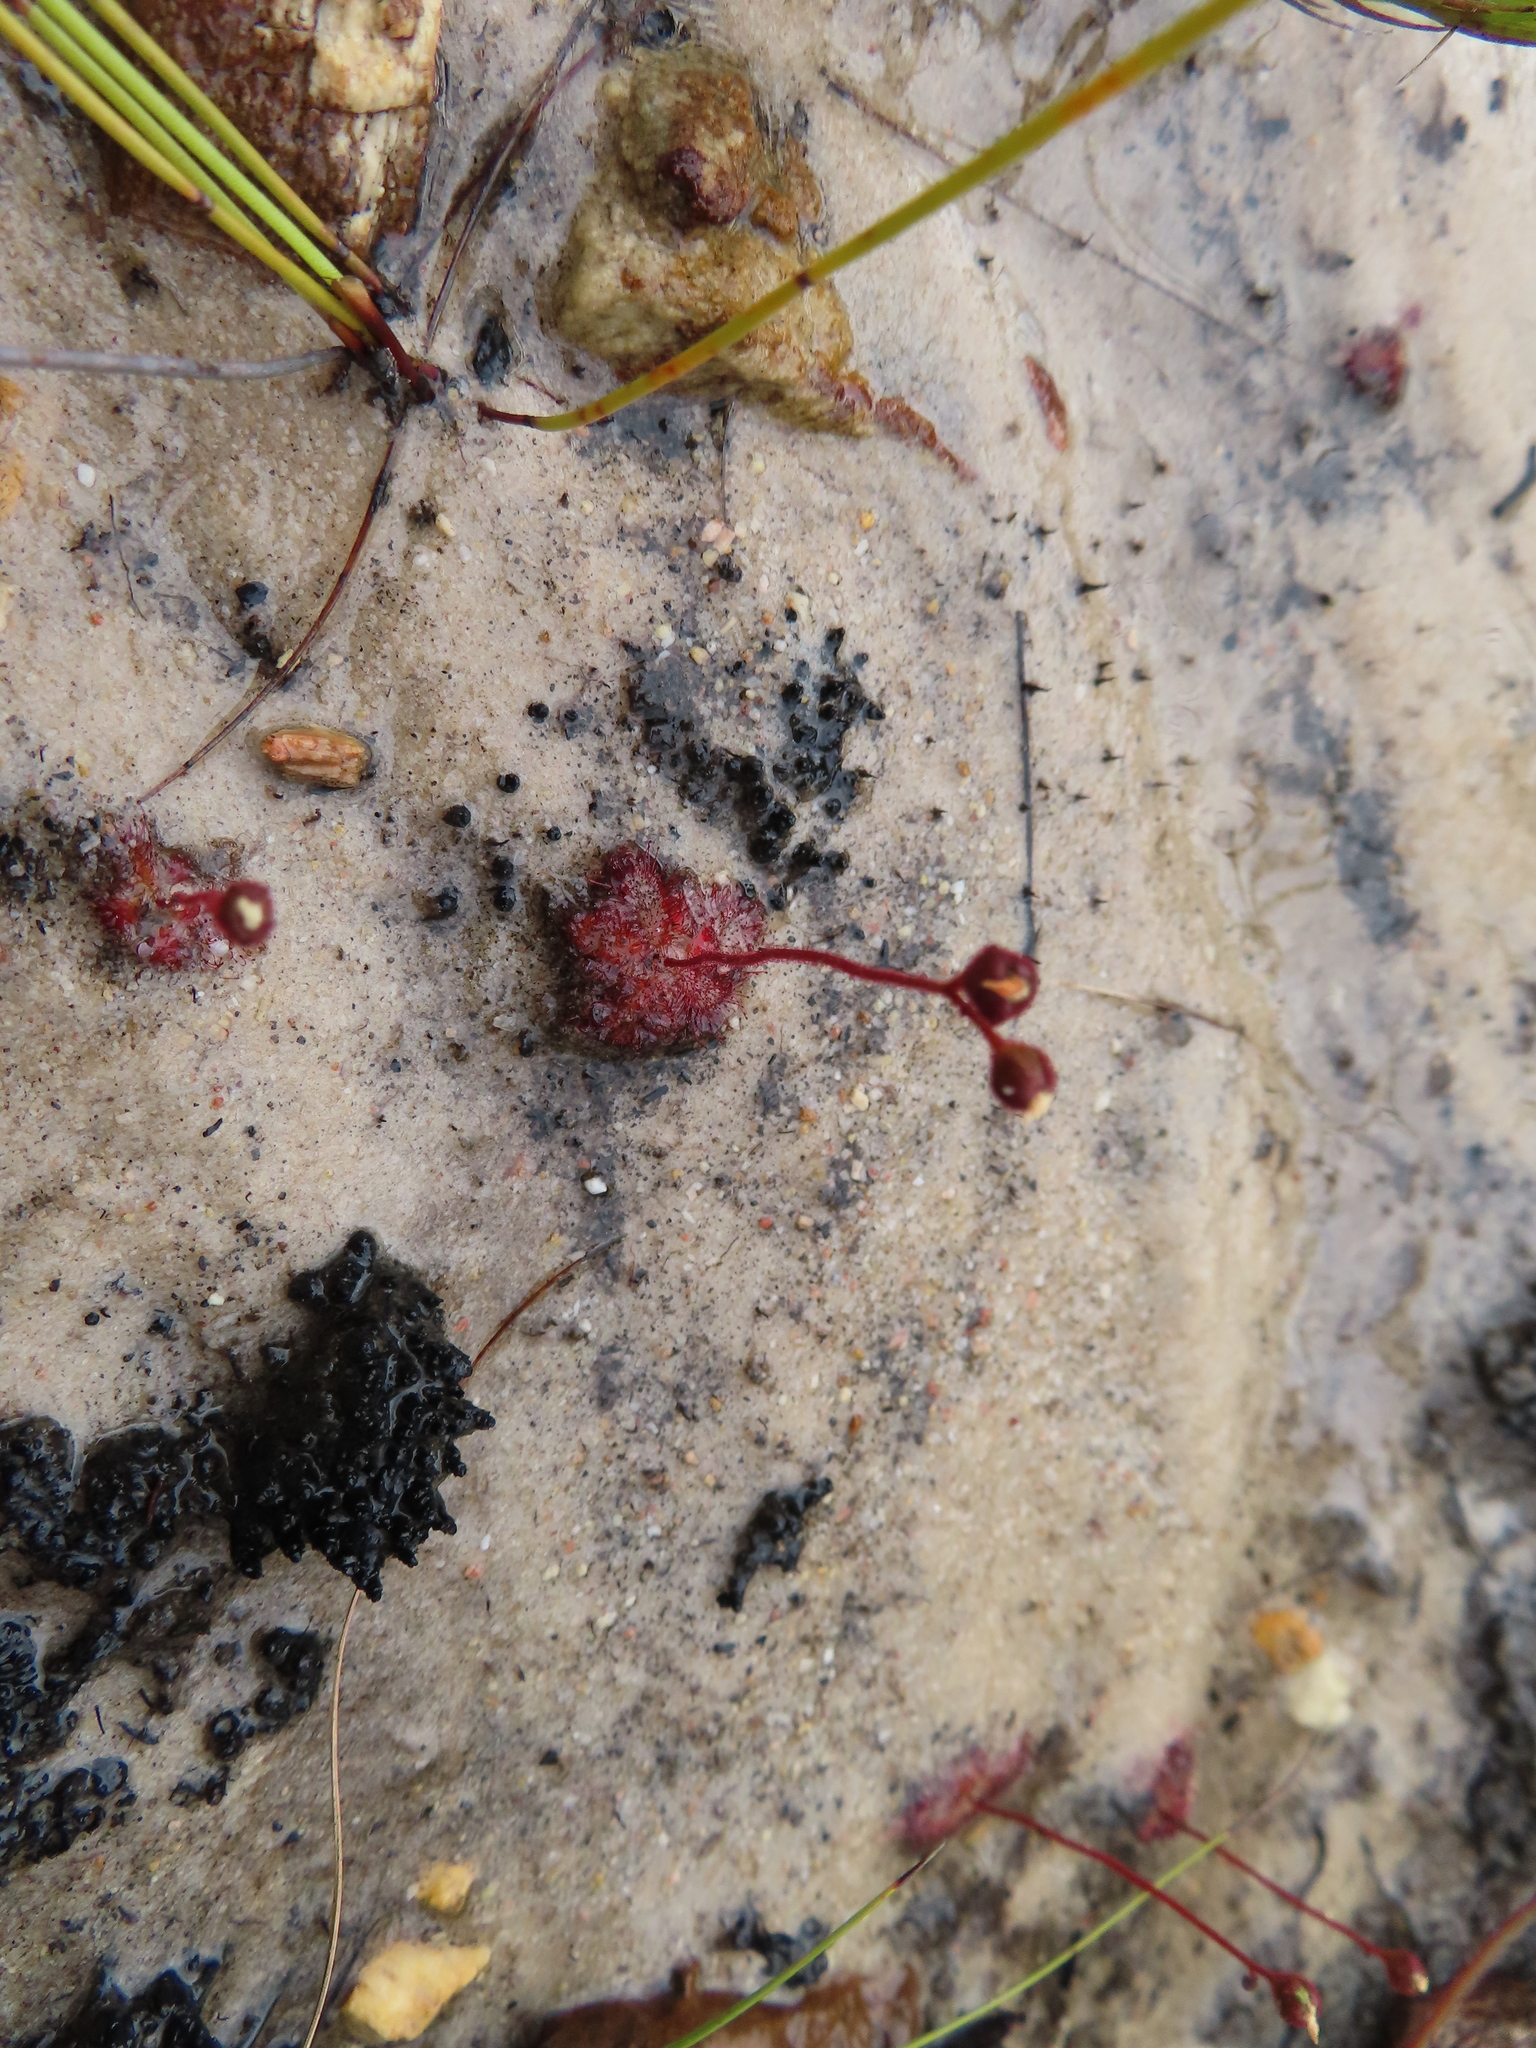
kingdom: Plantae
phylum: Tracheophyta
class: Magnoliopsida
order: Caryophyllales
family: Droseraceae
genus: Drosera
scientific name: Drosera trinervia
